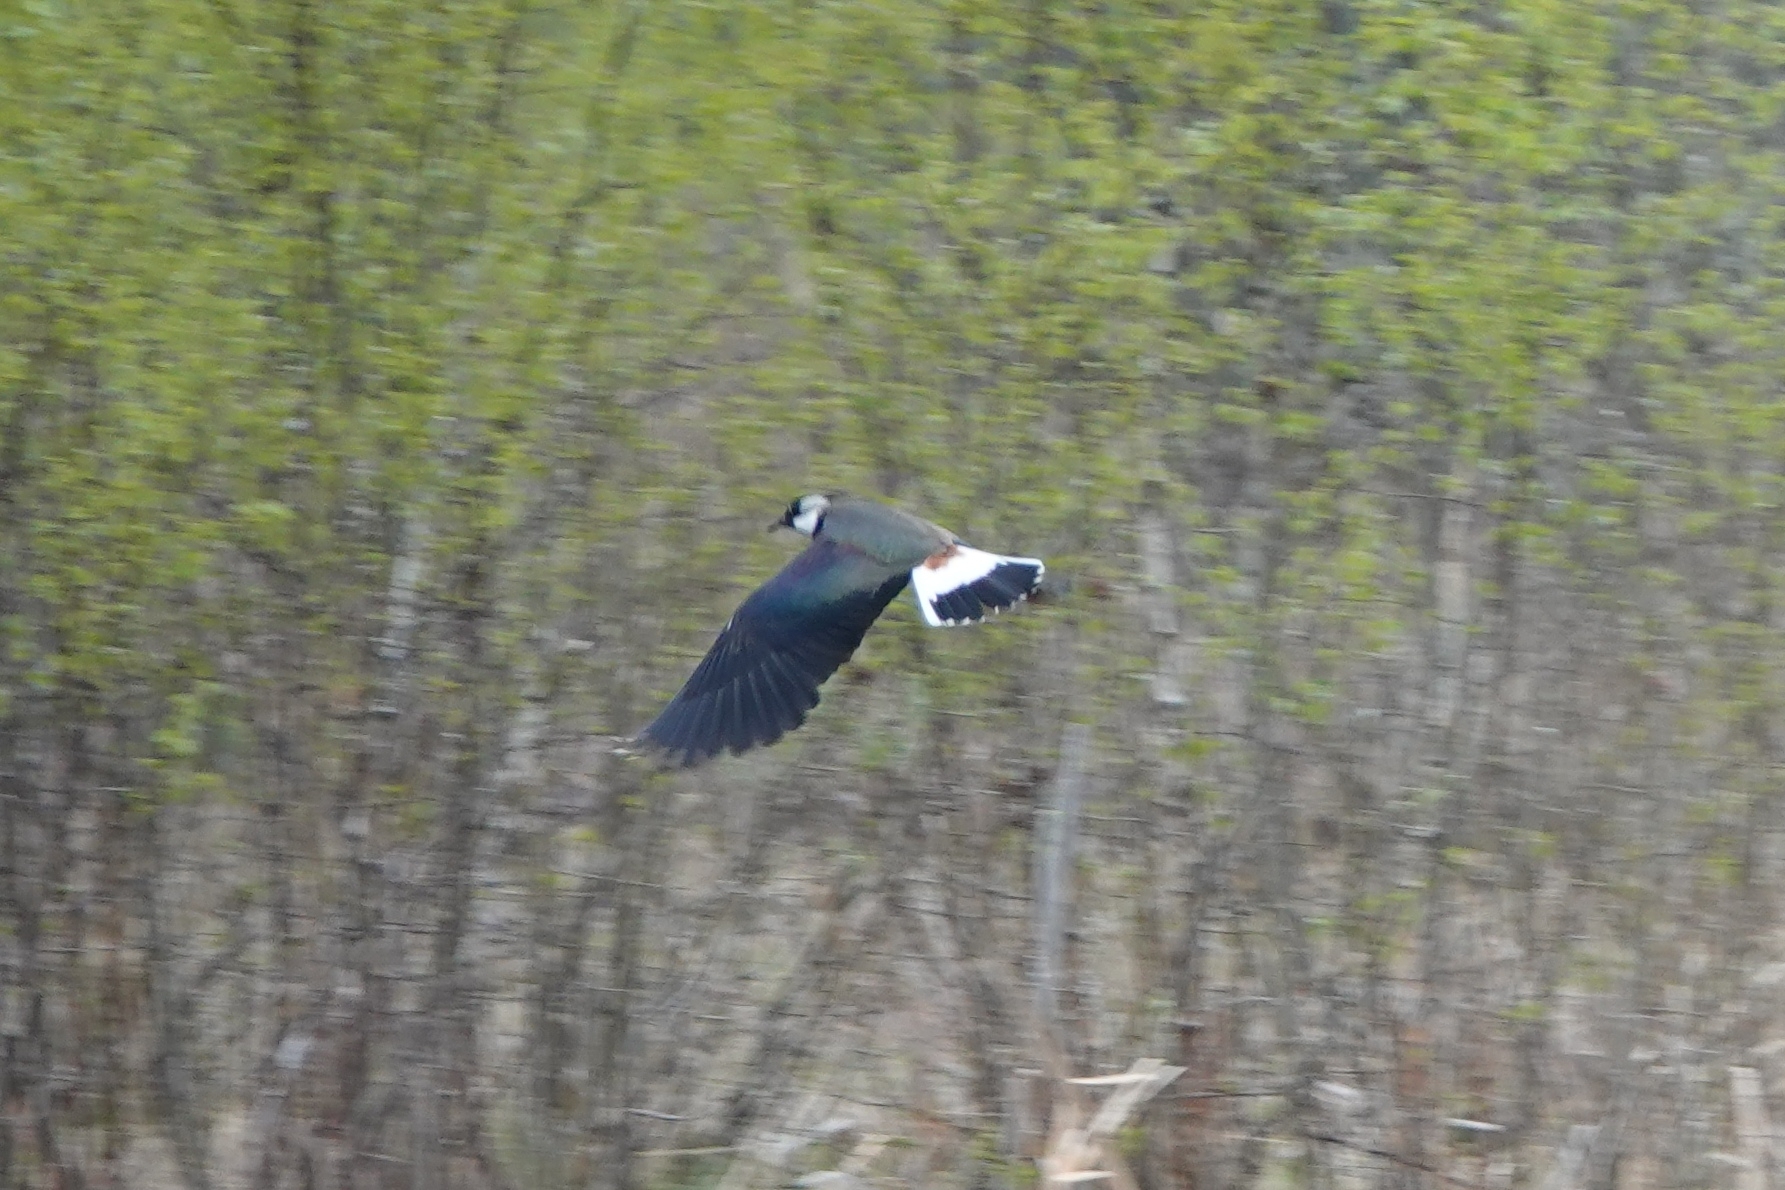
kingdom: Animalia
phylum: Chordata
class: Aves
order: Charadriiformes
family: Charadriidae
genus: Vanellus
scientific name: Vanellus vanellus
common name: Northern lapwing
